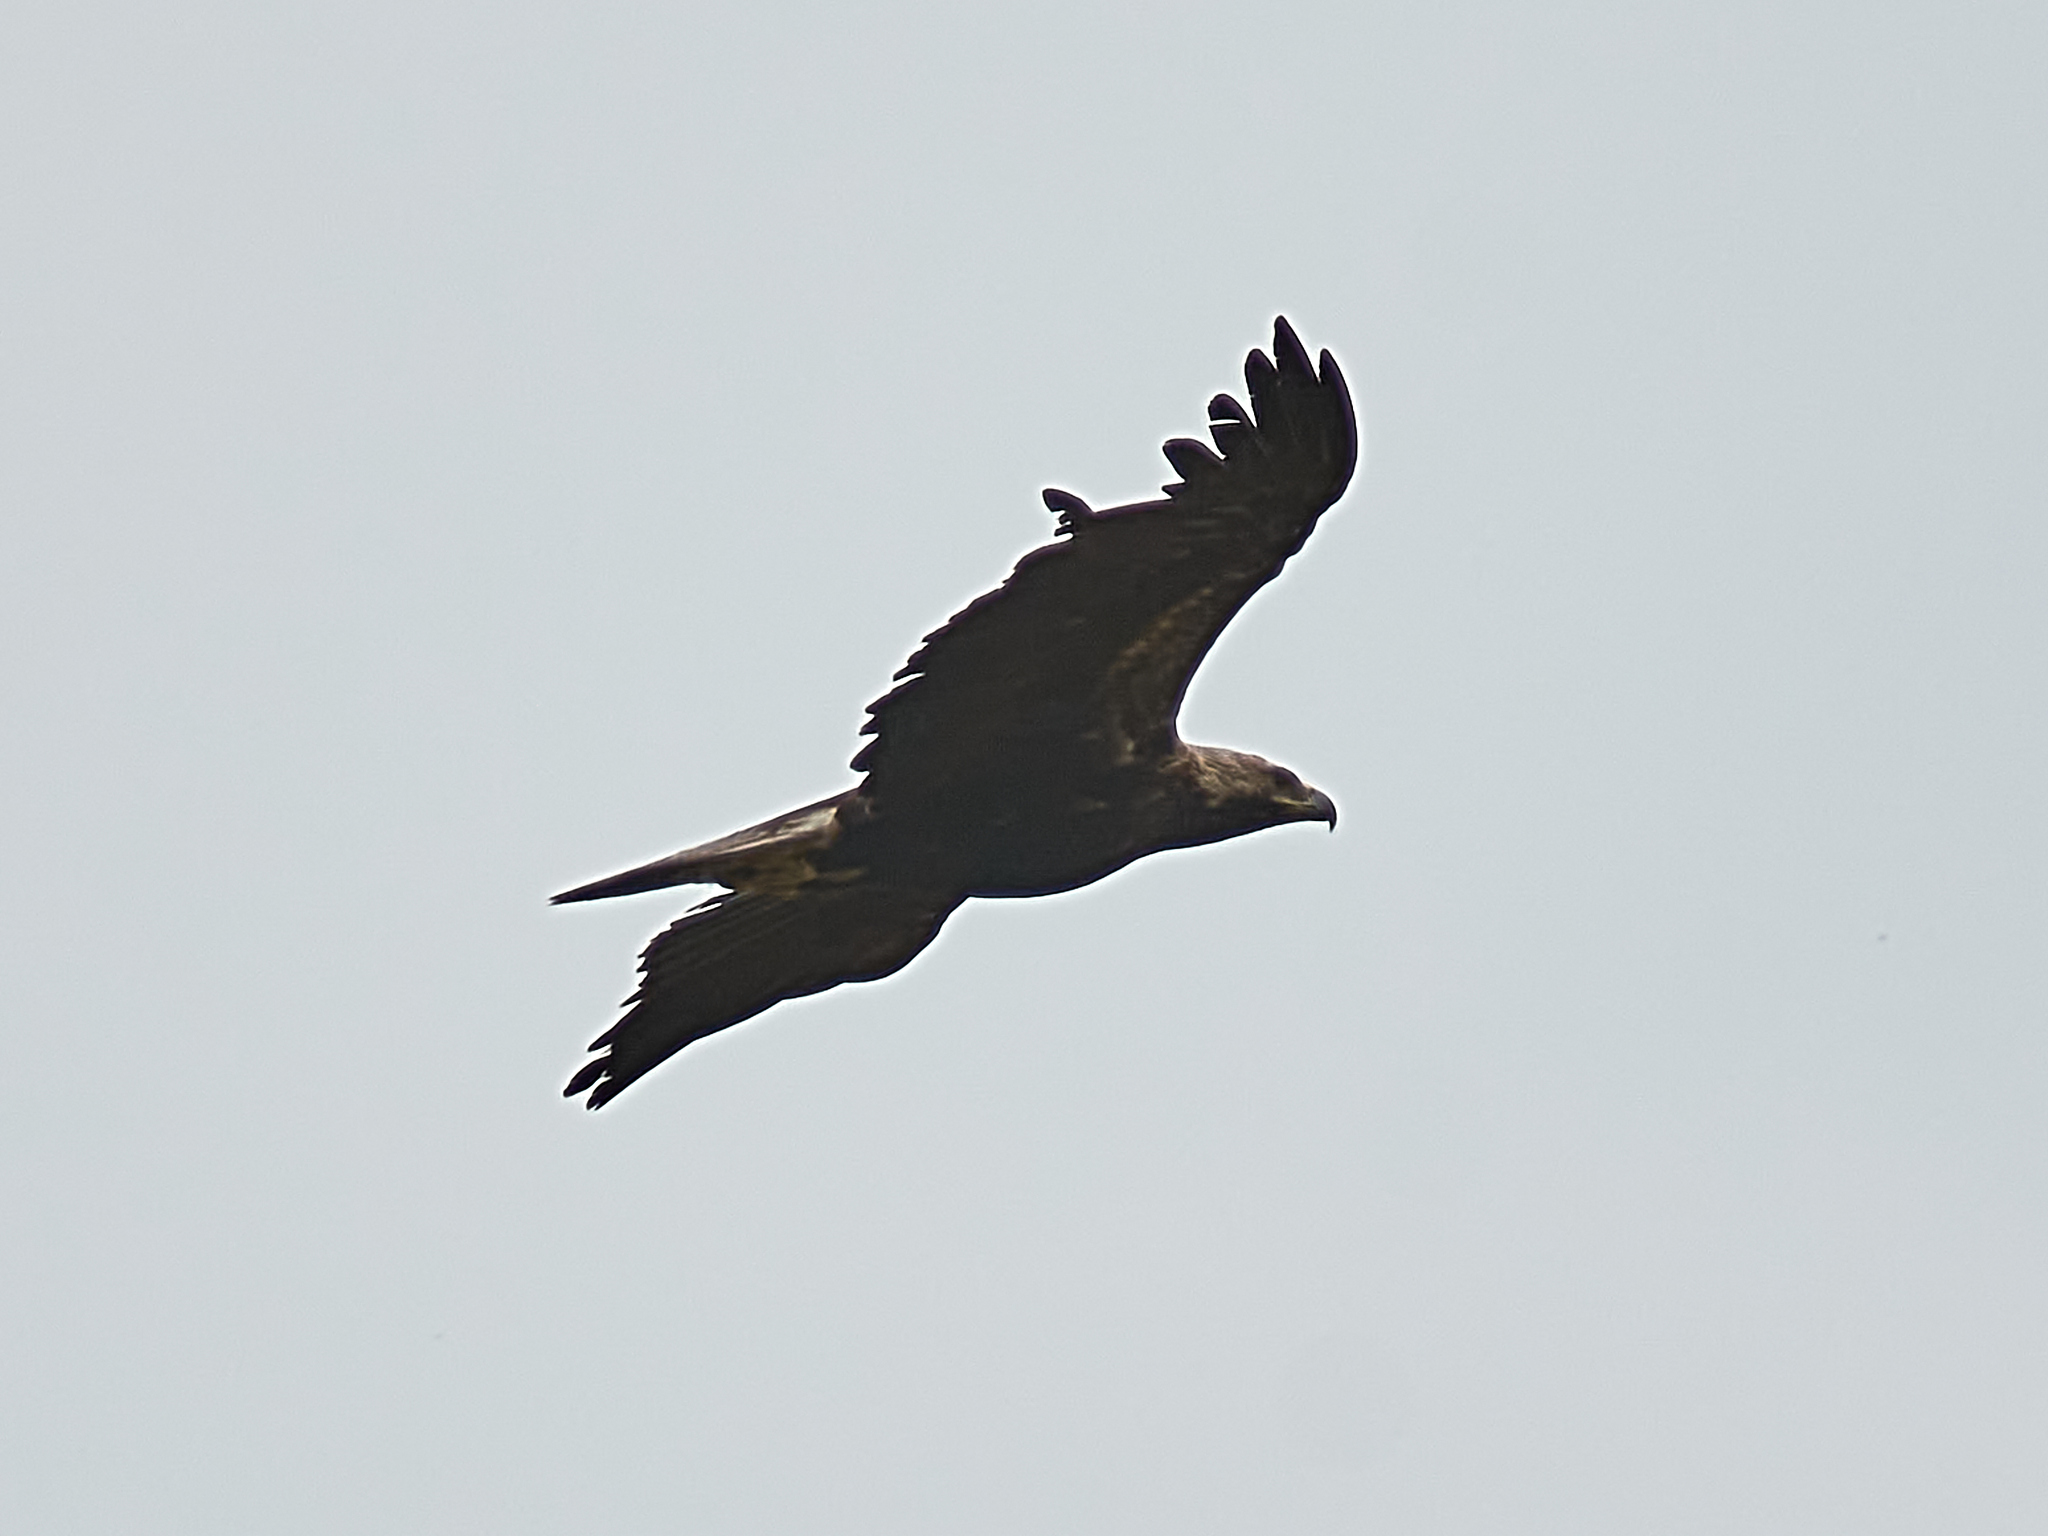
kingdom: Animalia
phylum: Chordata
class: Aves
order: Accipitriformes
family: Accipitridae
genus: Aquila
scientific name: Aquila heliaca
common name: Eastern imperial eagle
